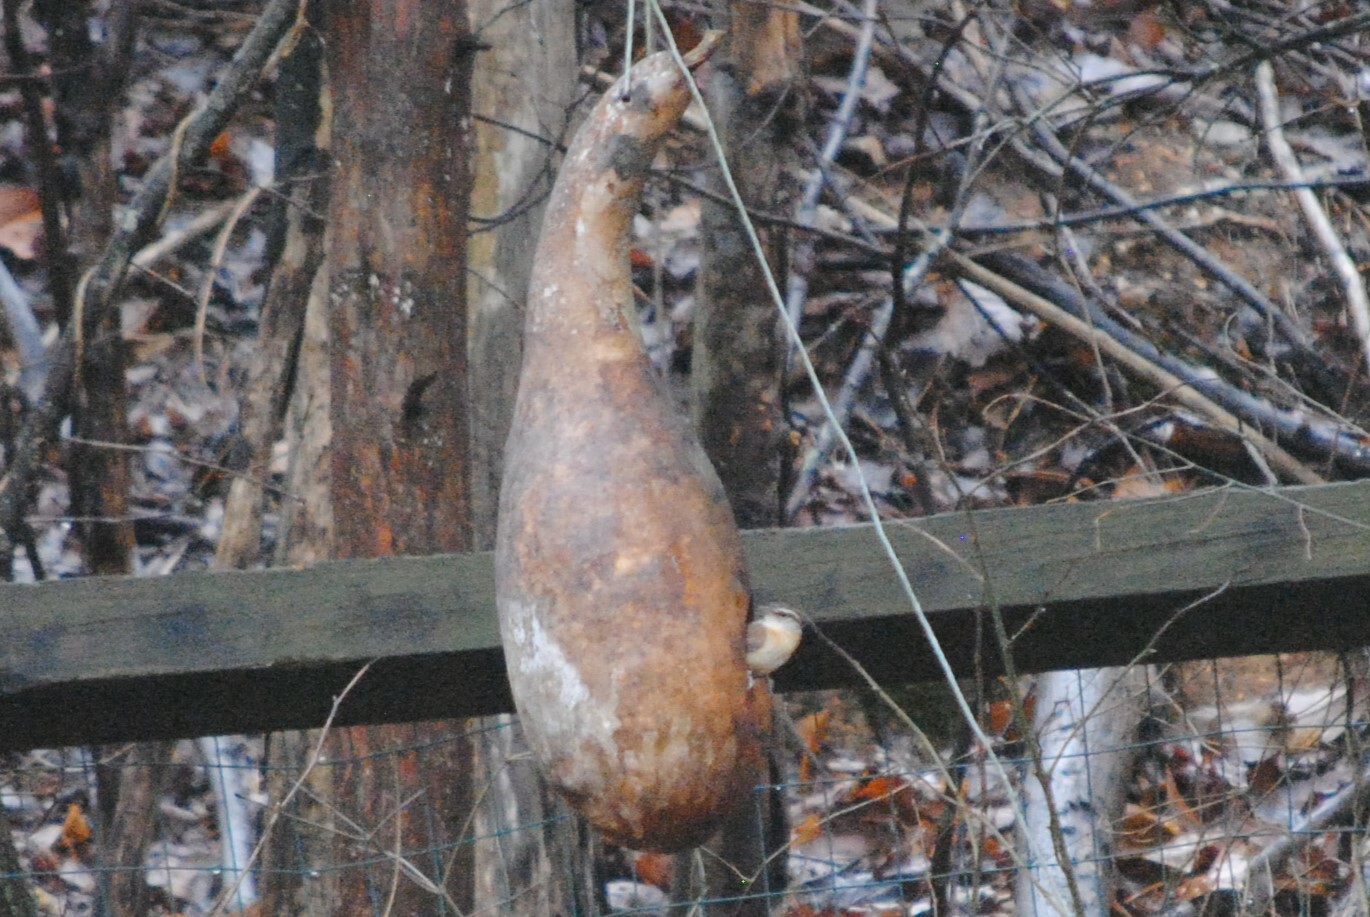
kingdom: Animalia
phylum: Chordata
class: Aves
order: Passeriformes
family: Troglodytidae
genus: Thryothorus
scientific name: Thryothorus ludovicianus
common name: Carolina wren
